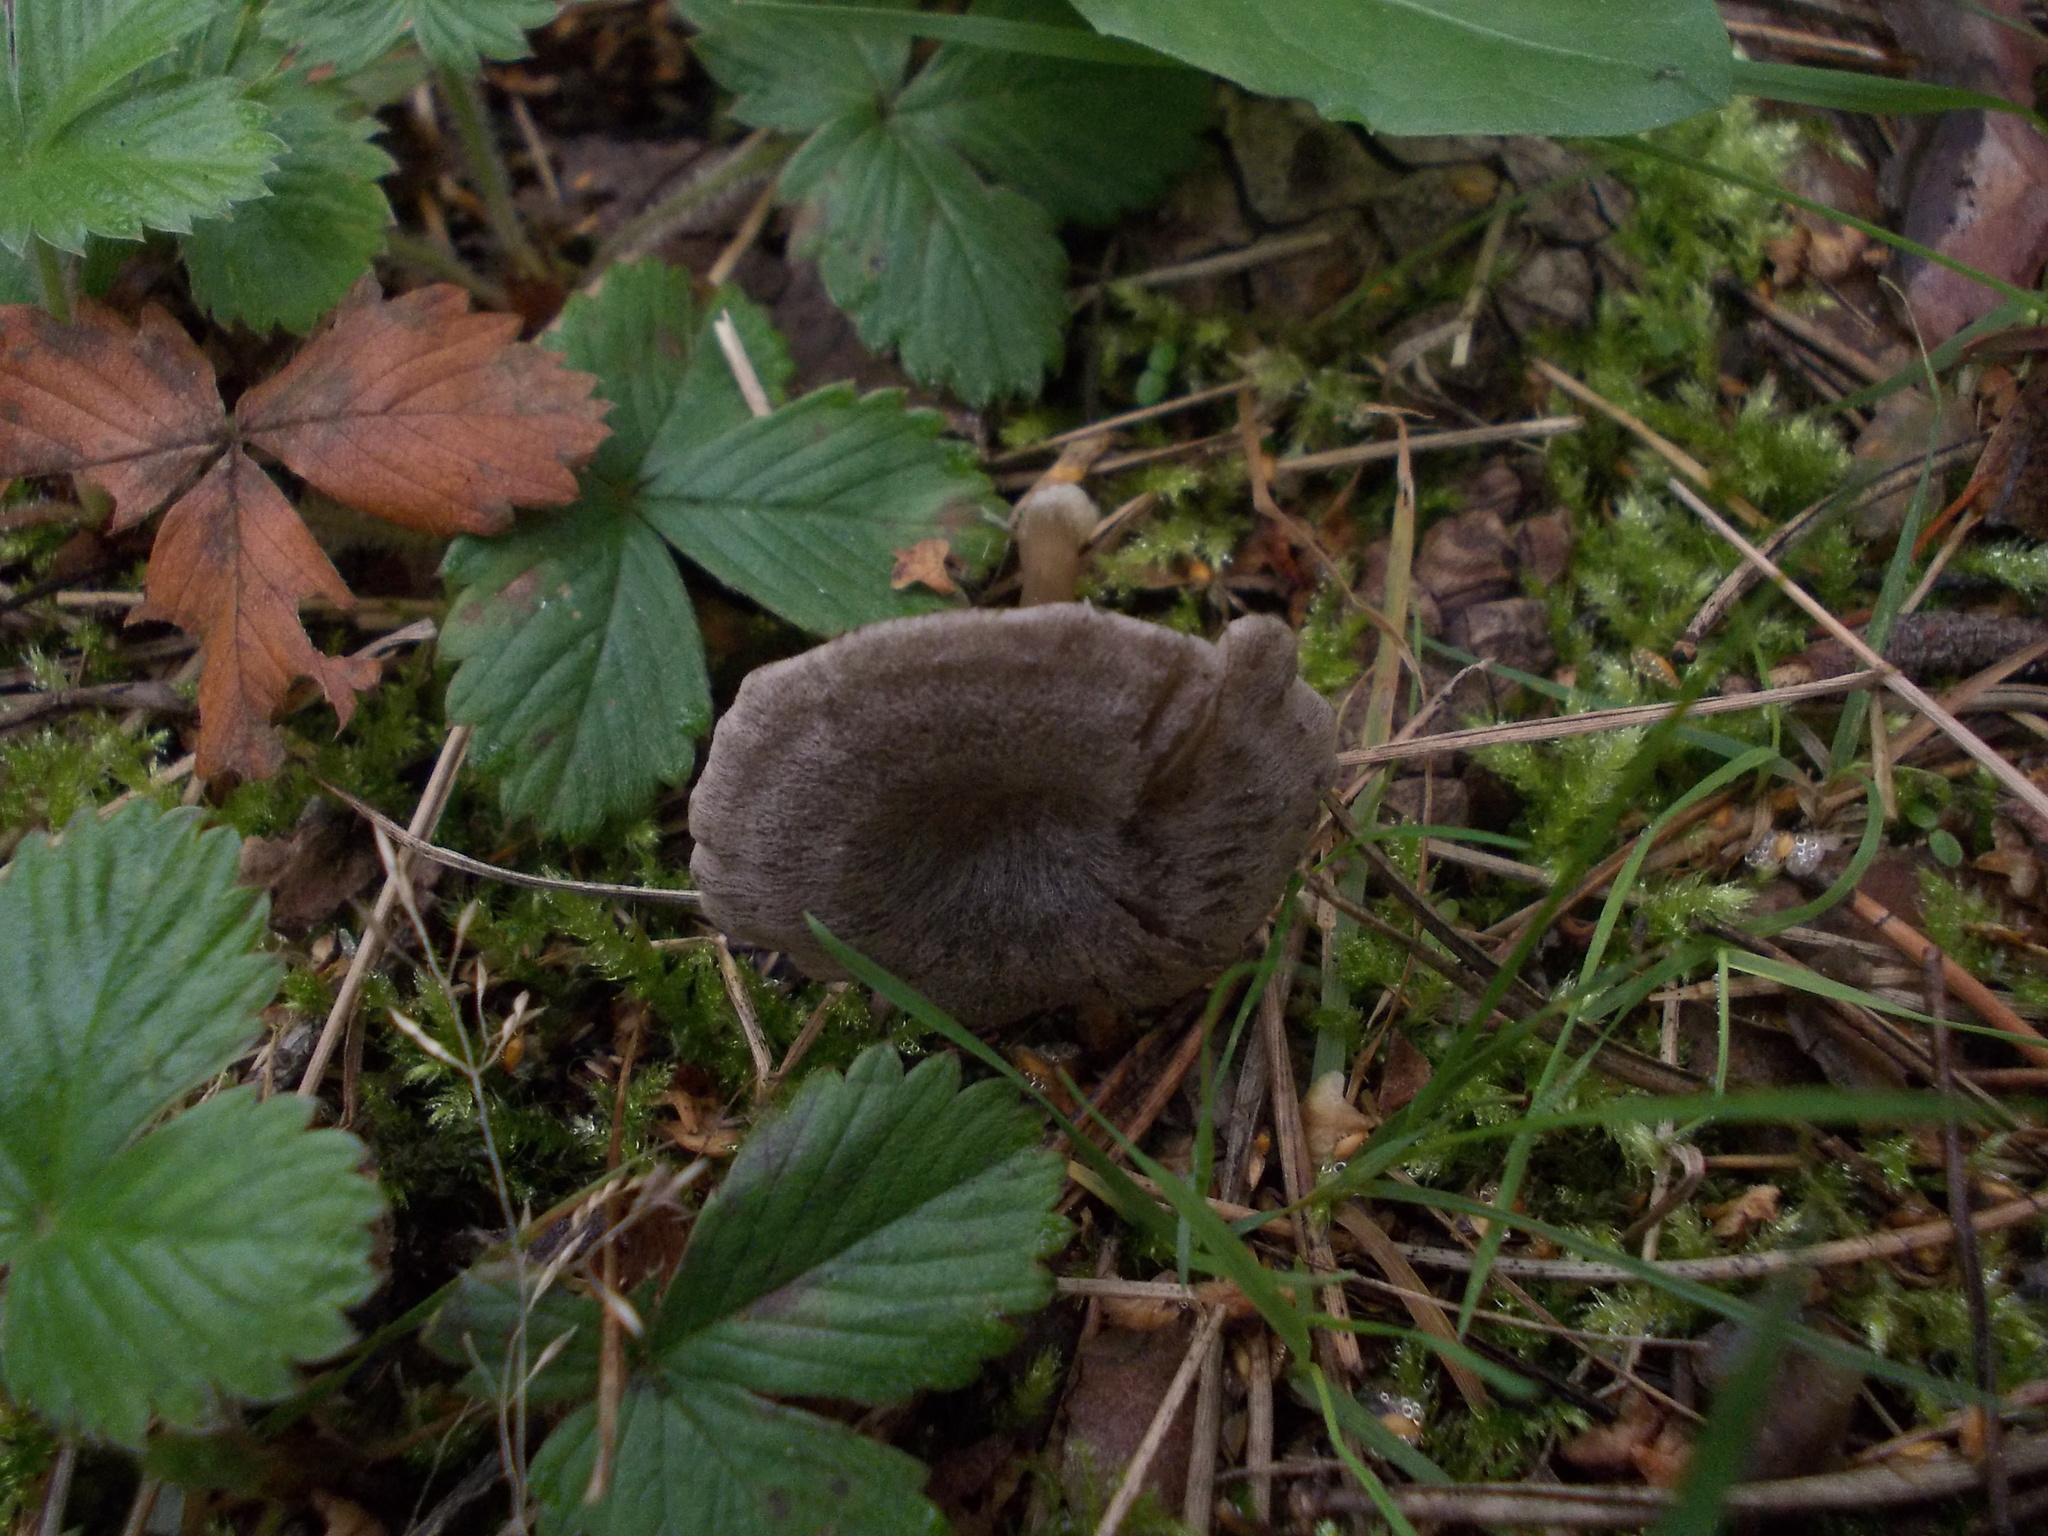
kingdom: Fungi
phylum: Basidiomycota
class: Agaricomycetes
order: Agaricales
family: Entolomataceae
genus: Entoloma
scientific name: Entoloma undatum
